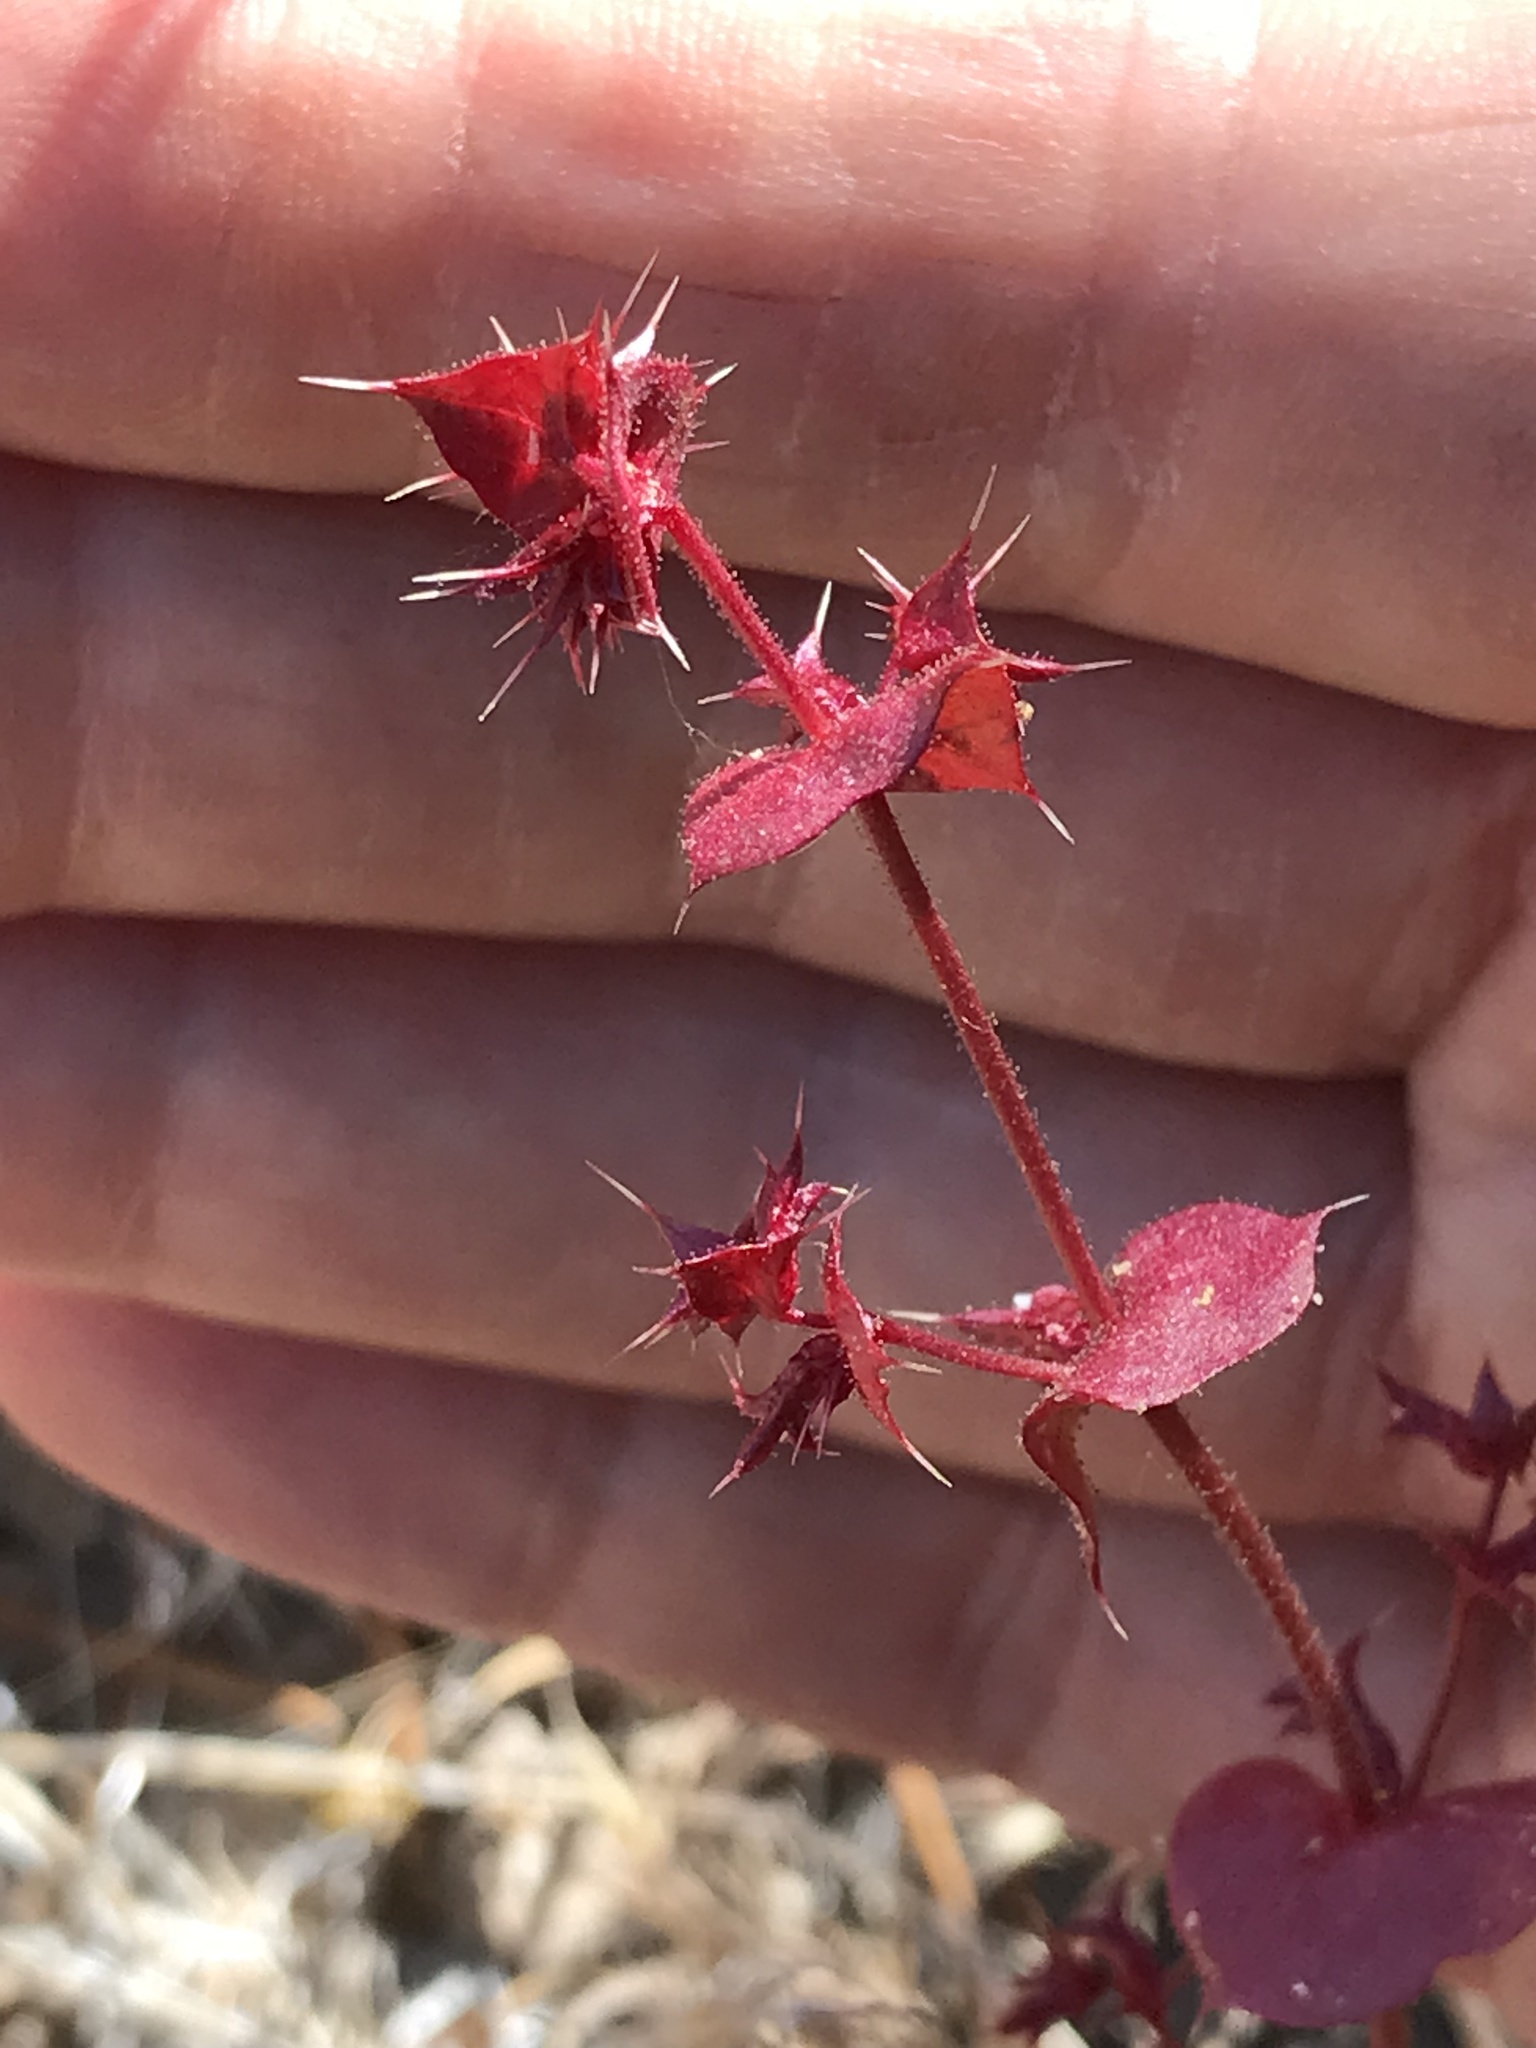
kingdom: Plantae
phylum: Tracheophyta
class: Magnoliopsida
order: Caryophyllales
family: Polygonaceae
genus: Mucronea
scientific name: Mucronea perfoliata
